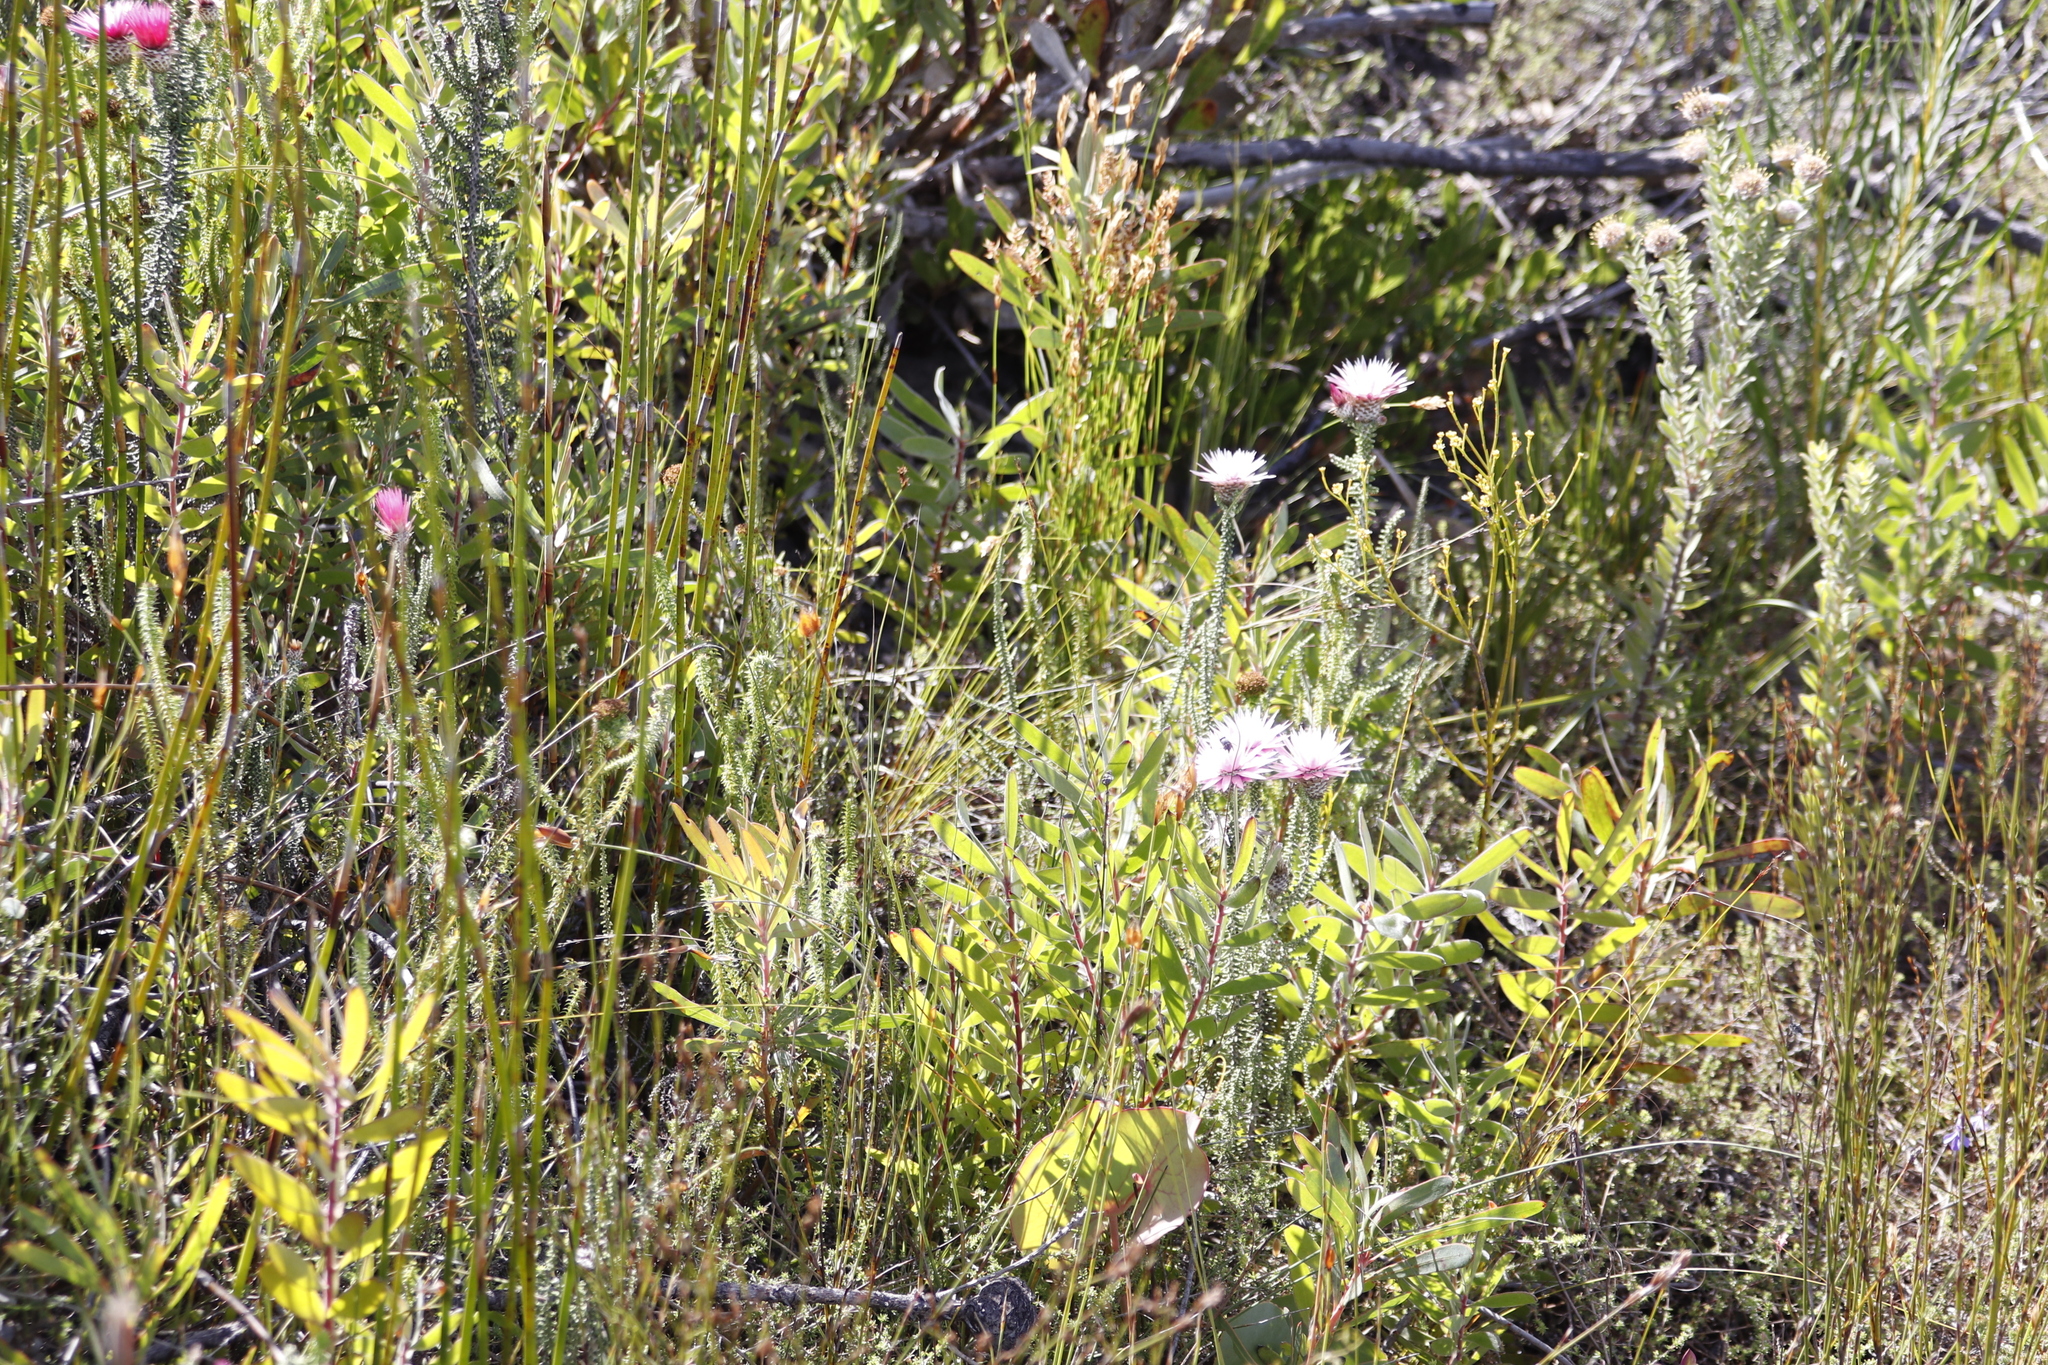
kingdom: Plantae
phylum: Tracheophyta
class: Magnoliopsida
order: Asterales
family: Asteraceae
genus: Phaenocoma
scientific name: Phaenocoma prolifera
